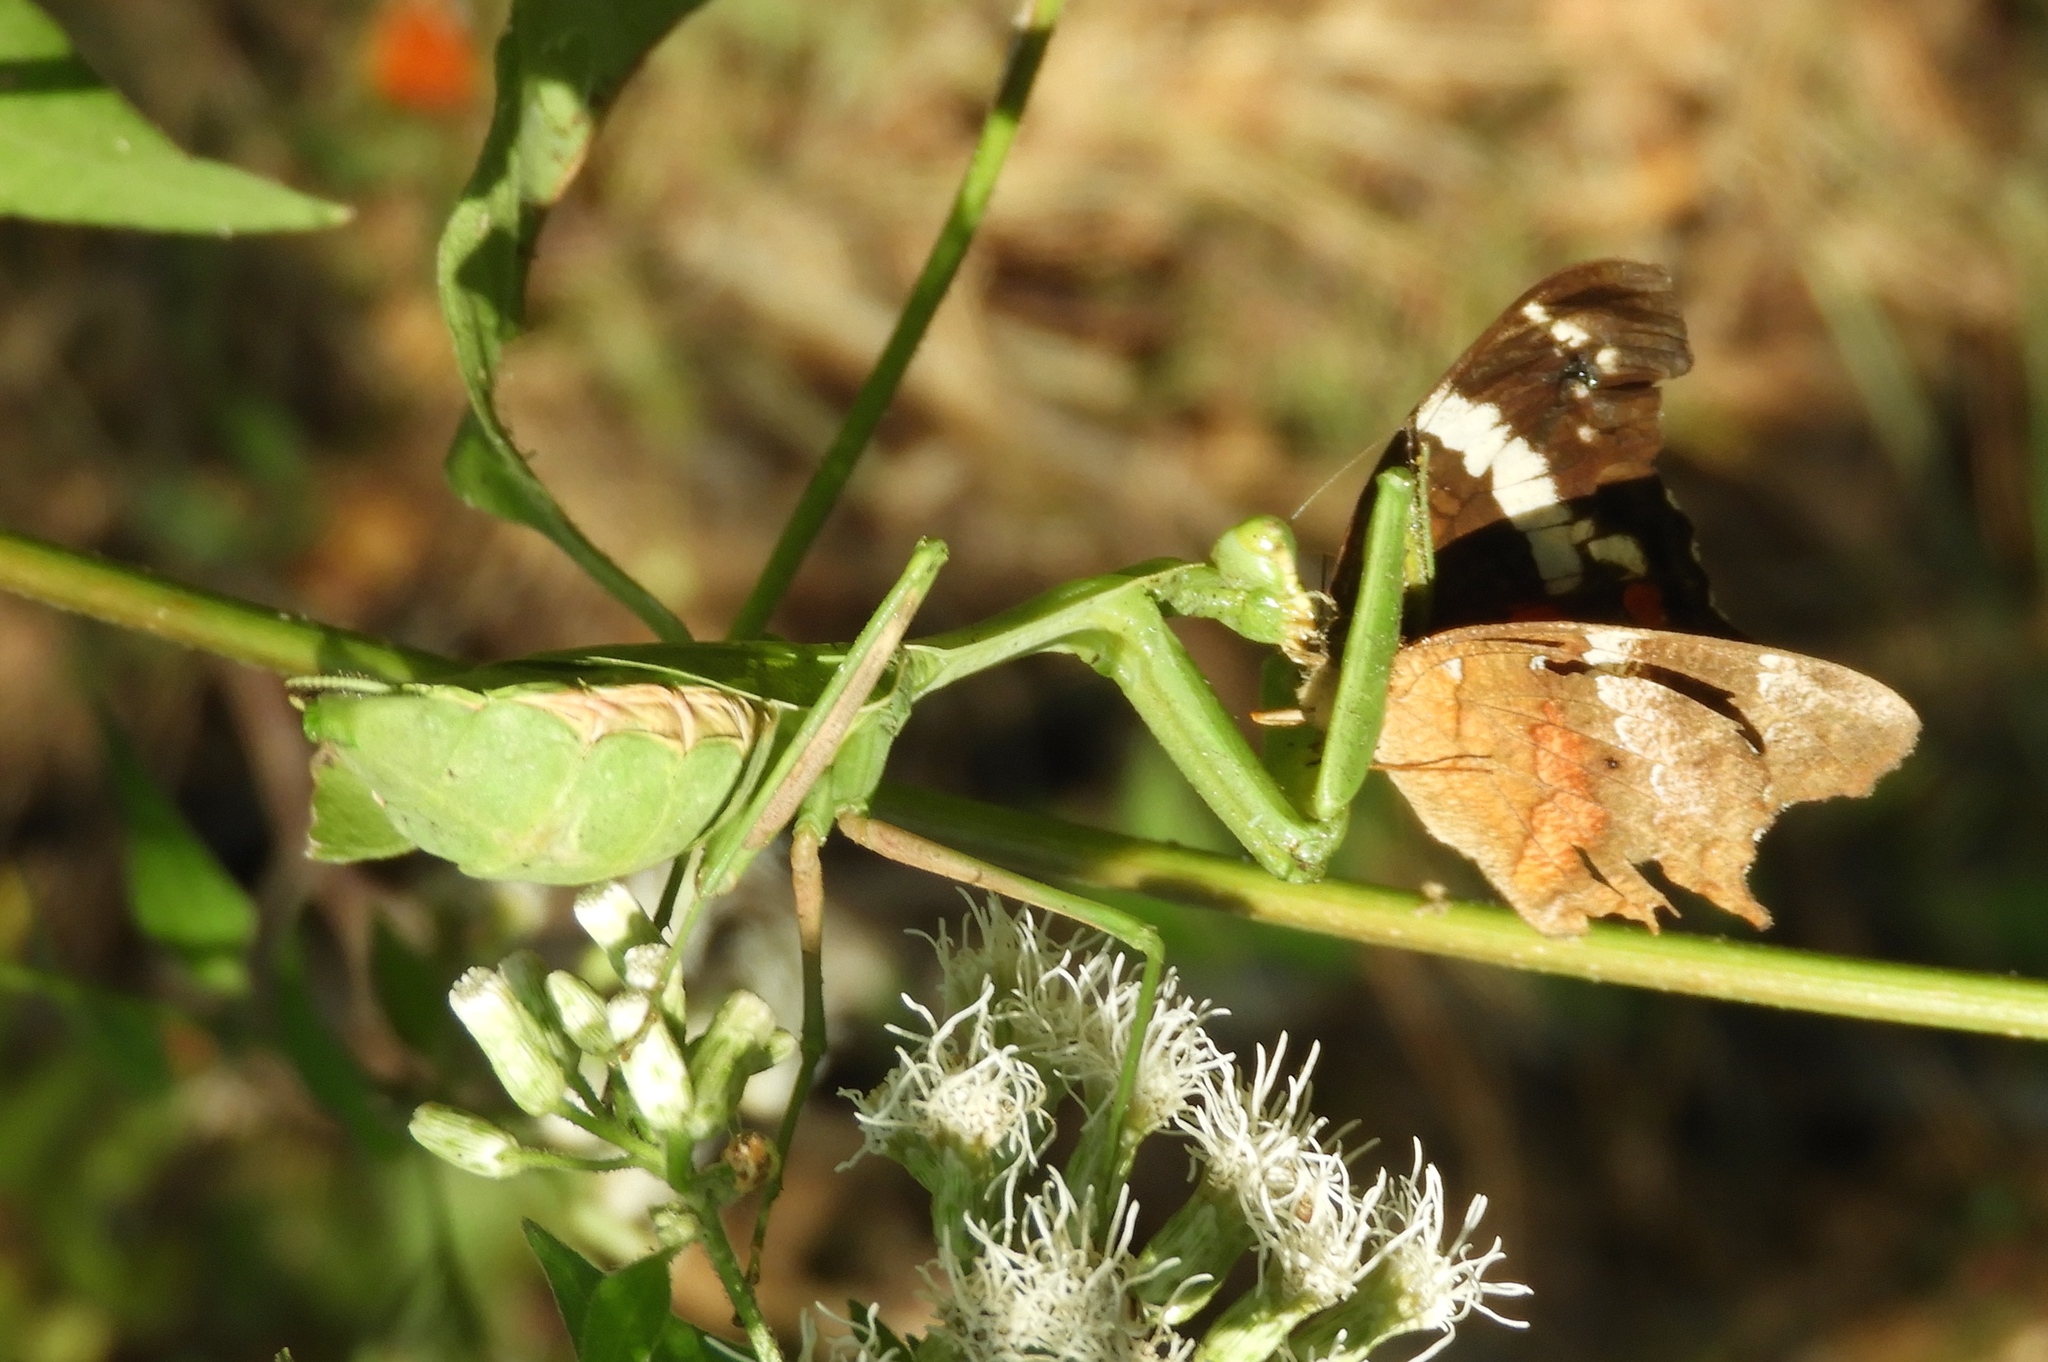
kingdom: Animalia
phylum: Arthropoda
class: Insecta
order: Mantodea
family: Mantidae
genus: Stagmomantis
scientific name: Stagmomantis limbata
